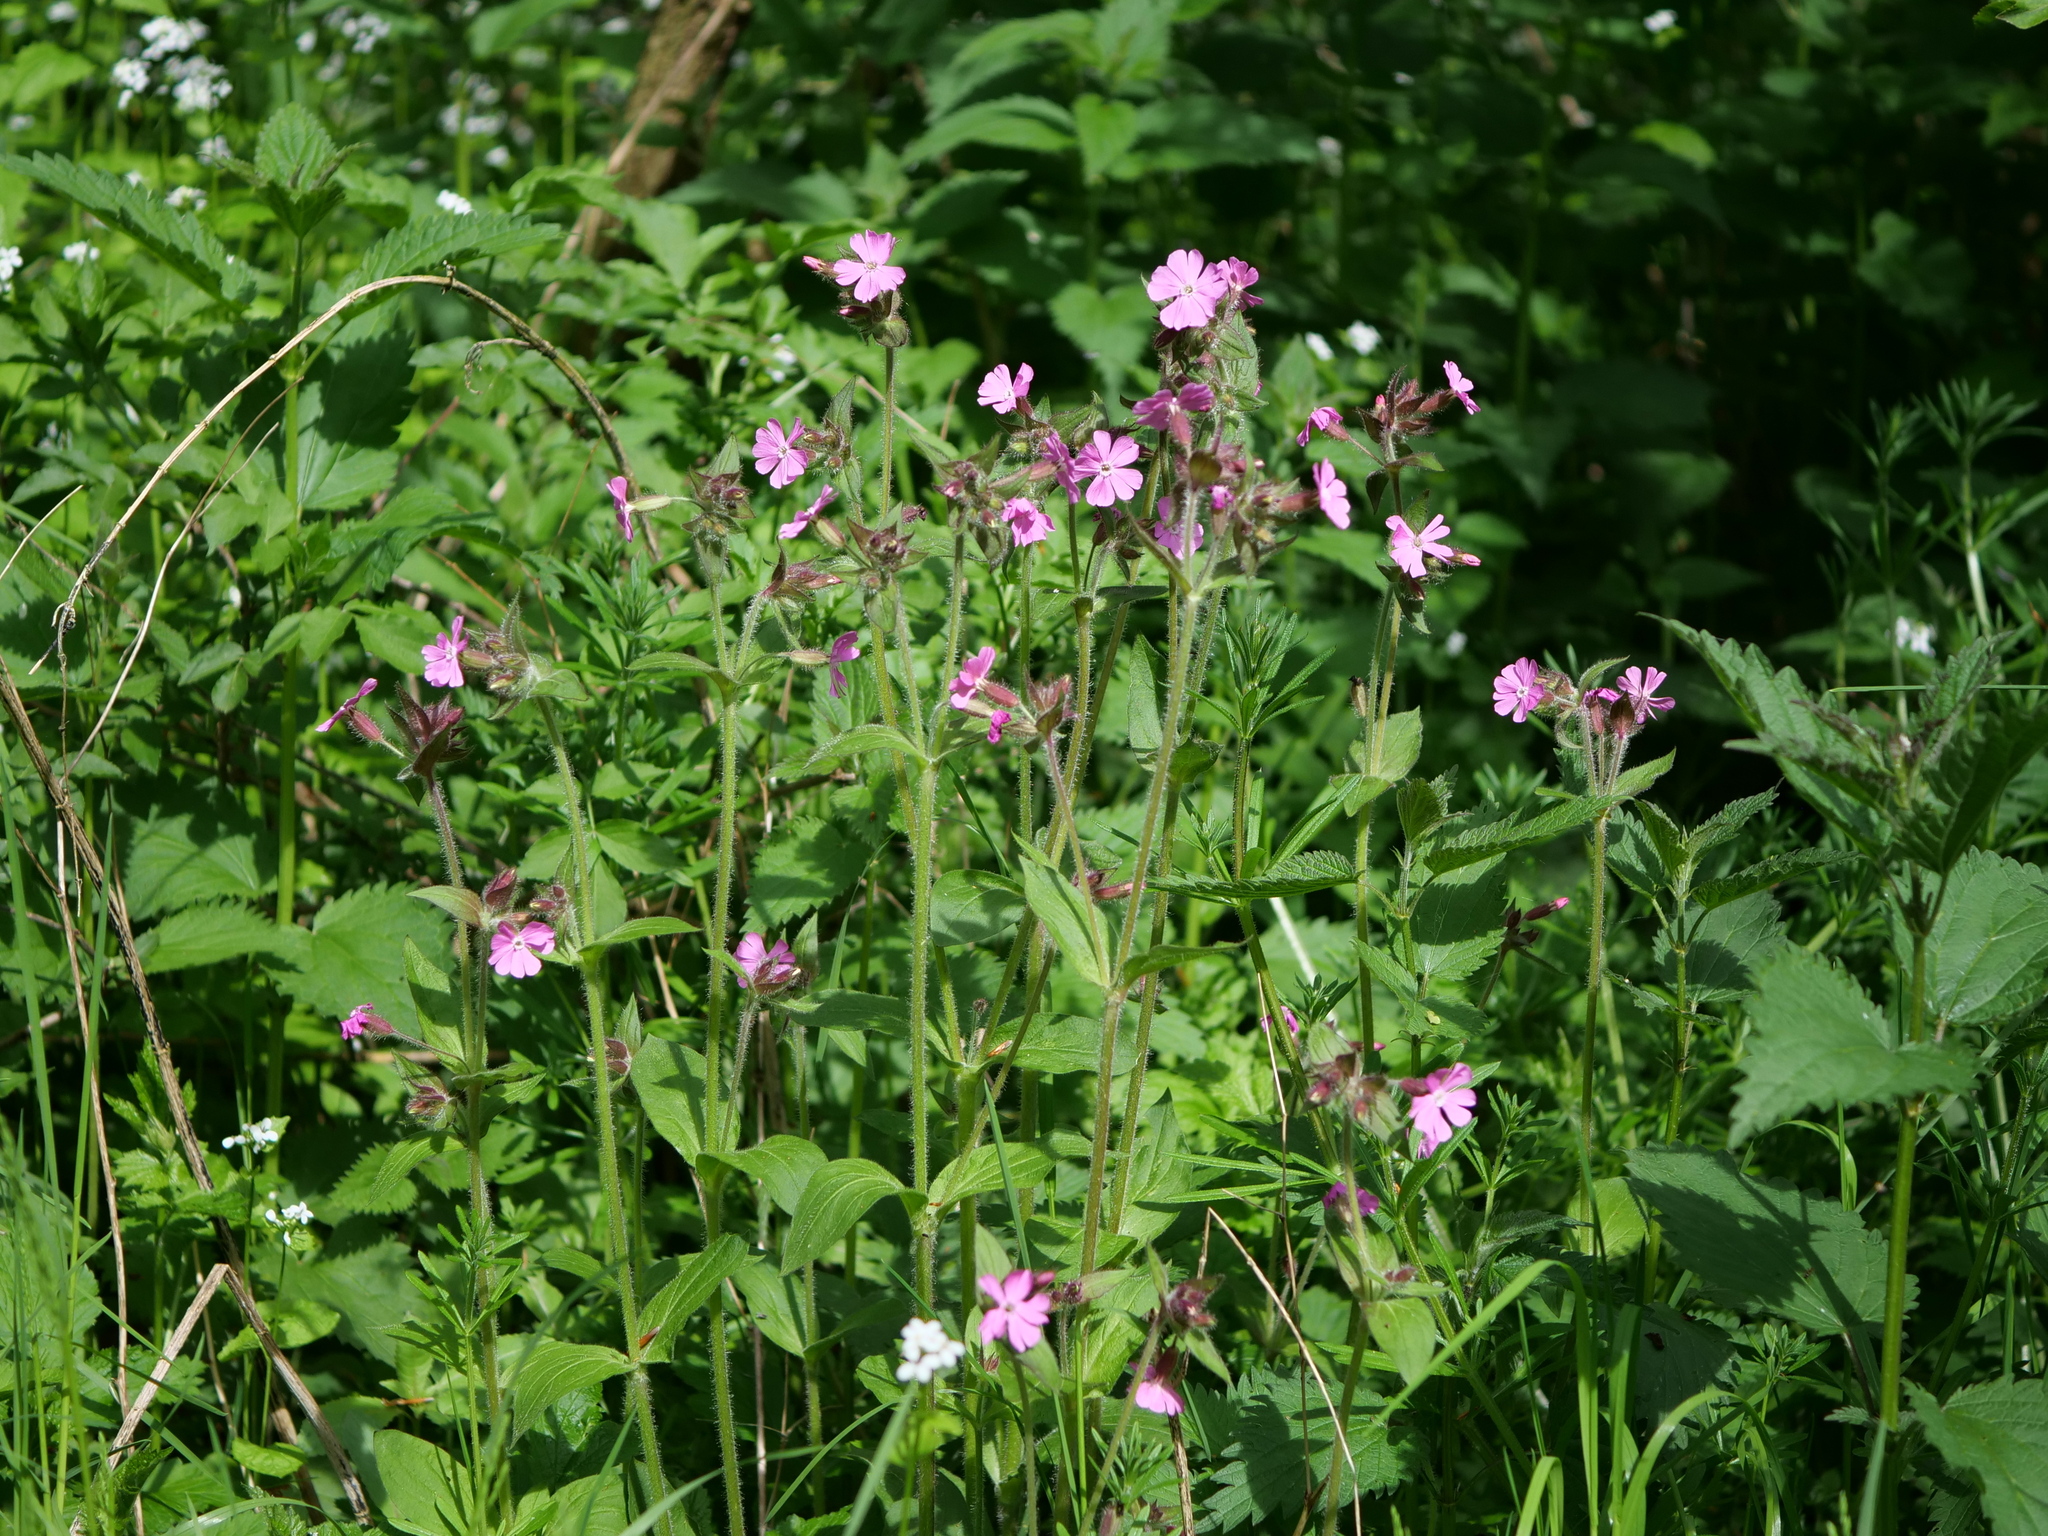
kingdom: Plantae
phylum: Tracheophyta
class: Magnoliopsida
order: Caryophyllales
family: Caryophyllaceae
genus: Silene
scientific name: Silene dioica
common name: Red campion
